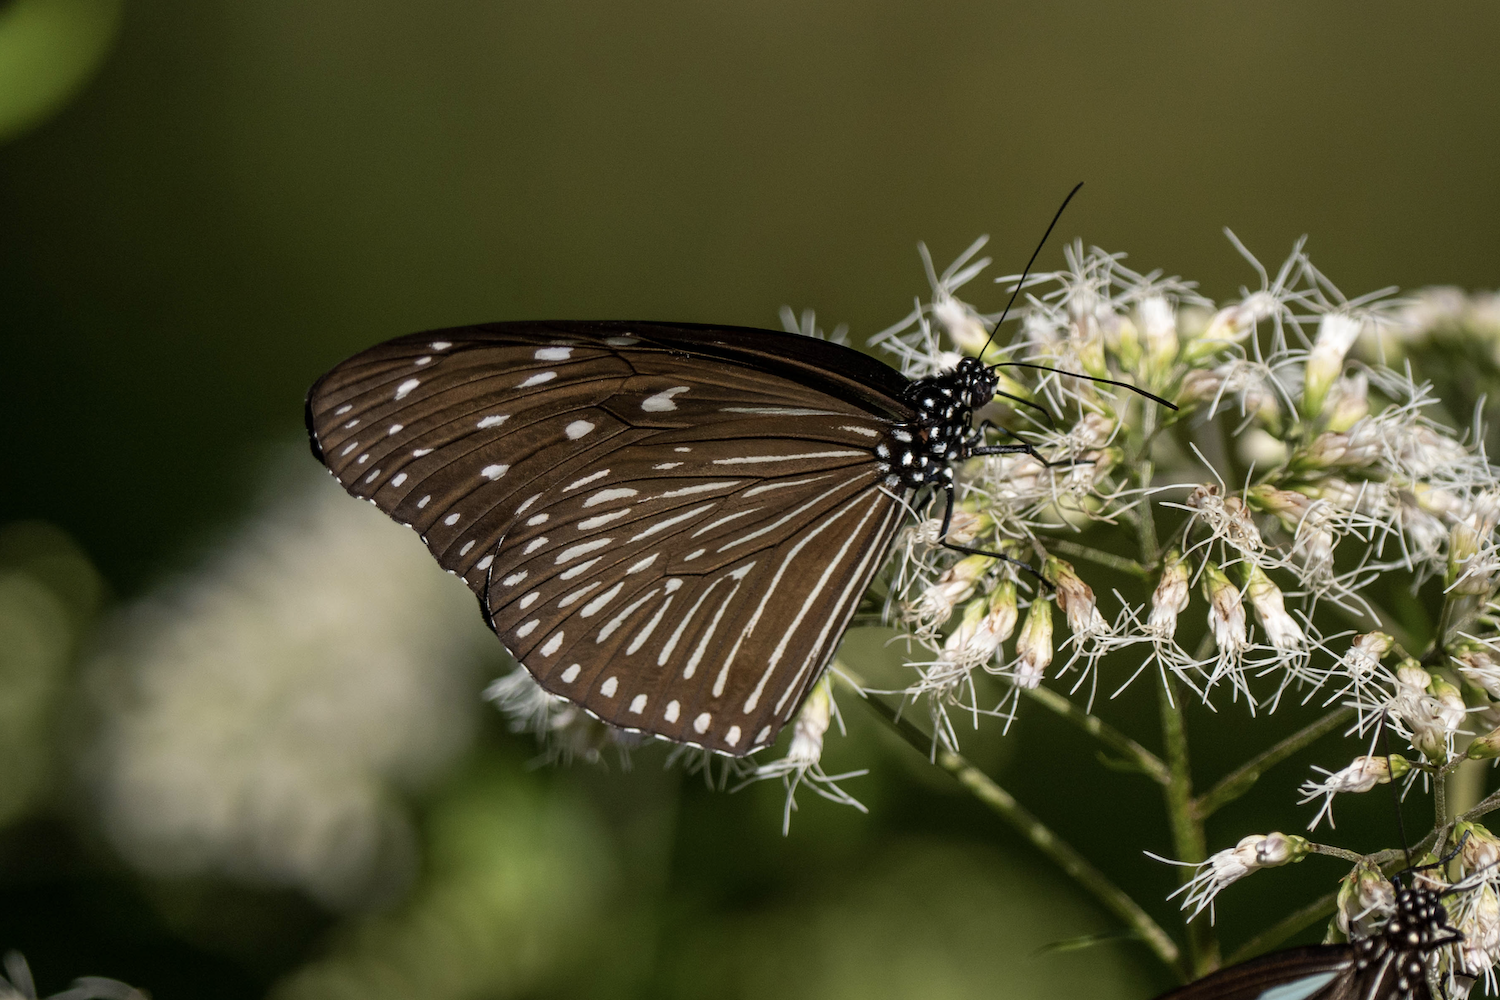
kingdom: Animalia
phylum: Arthropoda
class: Insecta
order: Lepidoptera
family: Nymphalidae
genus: Euploea
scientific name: Euploea mulciber
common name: Striped blue crow butterfly
